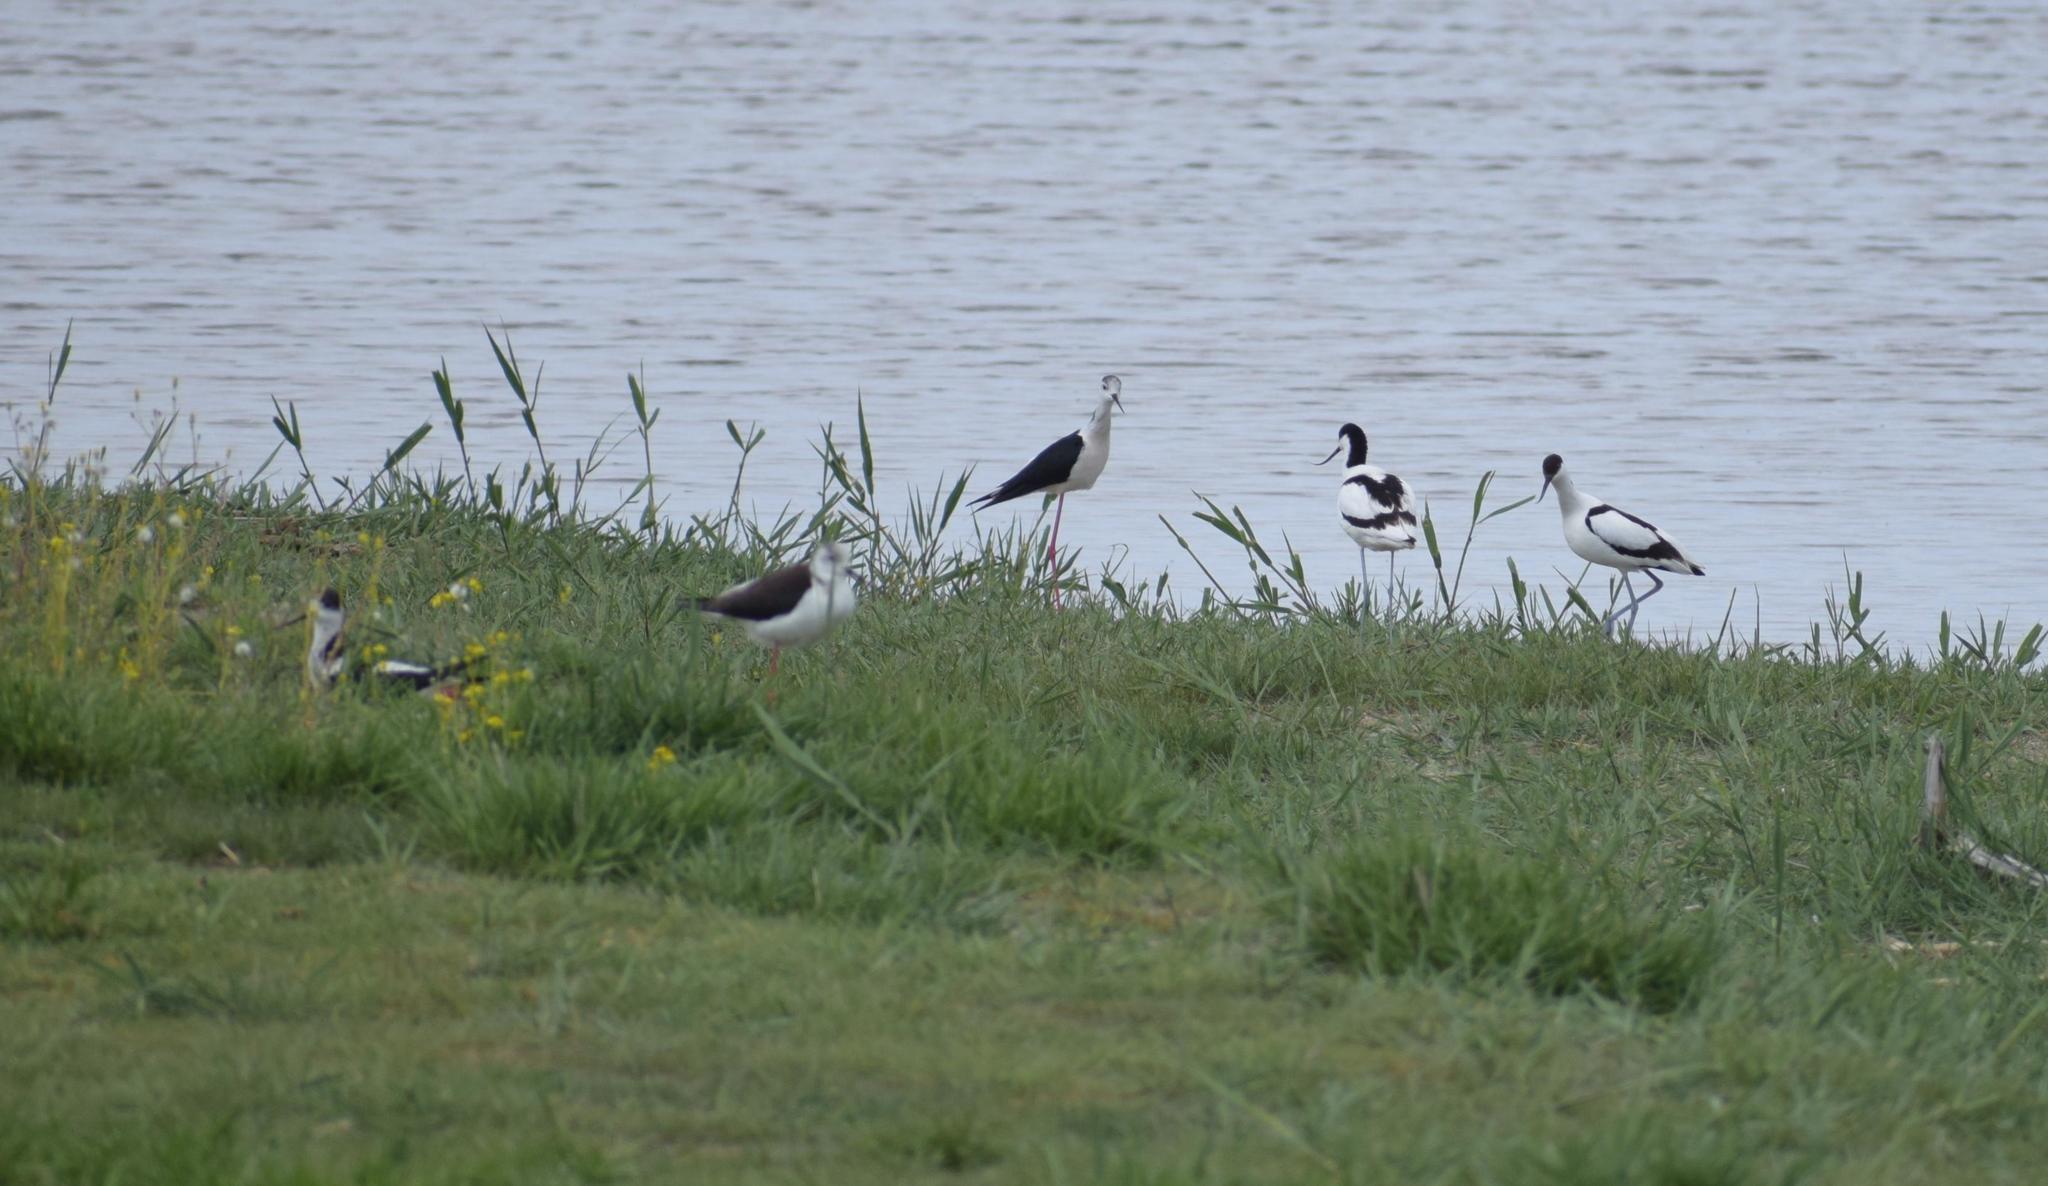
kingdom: Animalia
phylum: Chordata
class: Aves
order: Charadriiformes
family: Recurvirostridae
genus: Himantopus
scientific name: Himantopus himantopus
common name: Black-winged stilt
